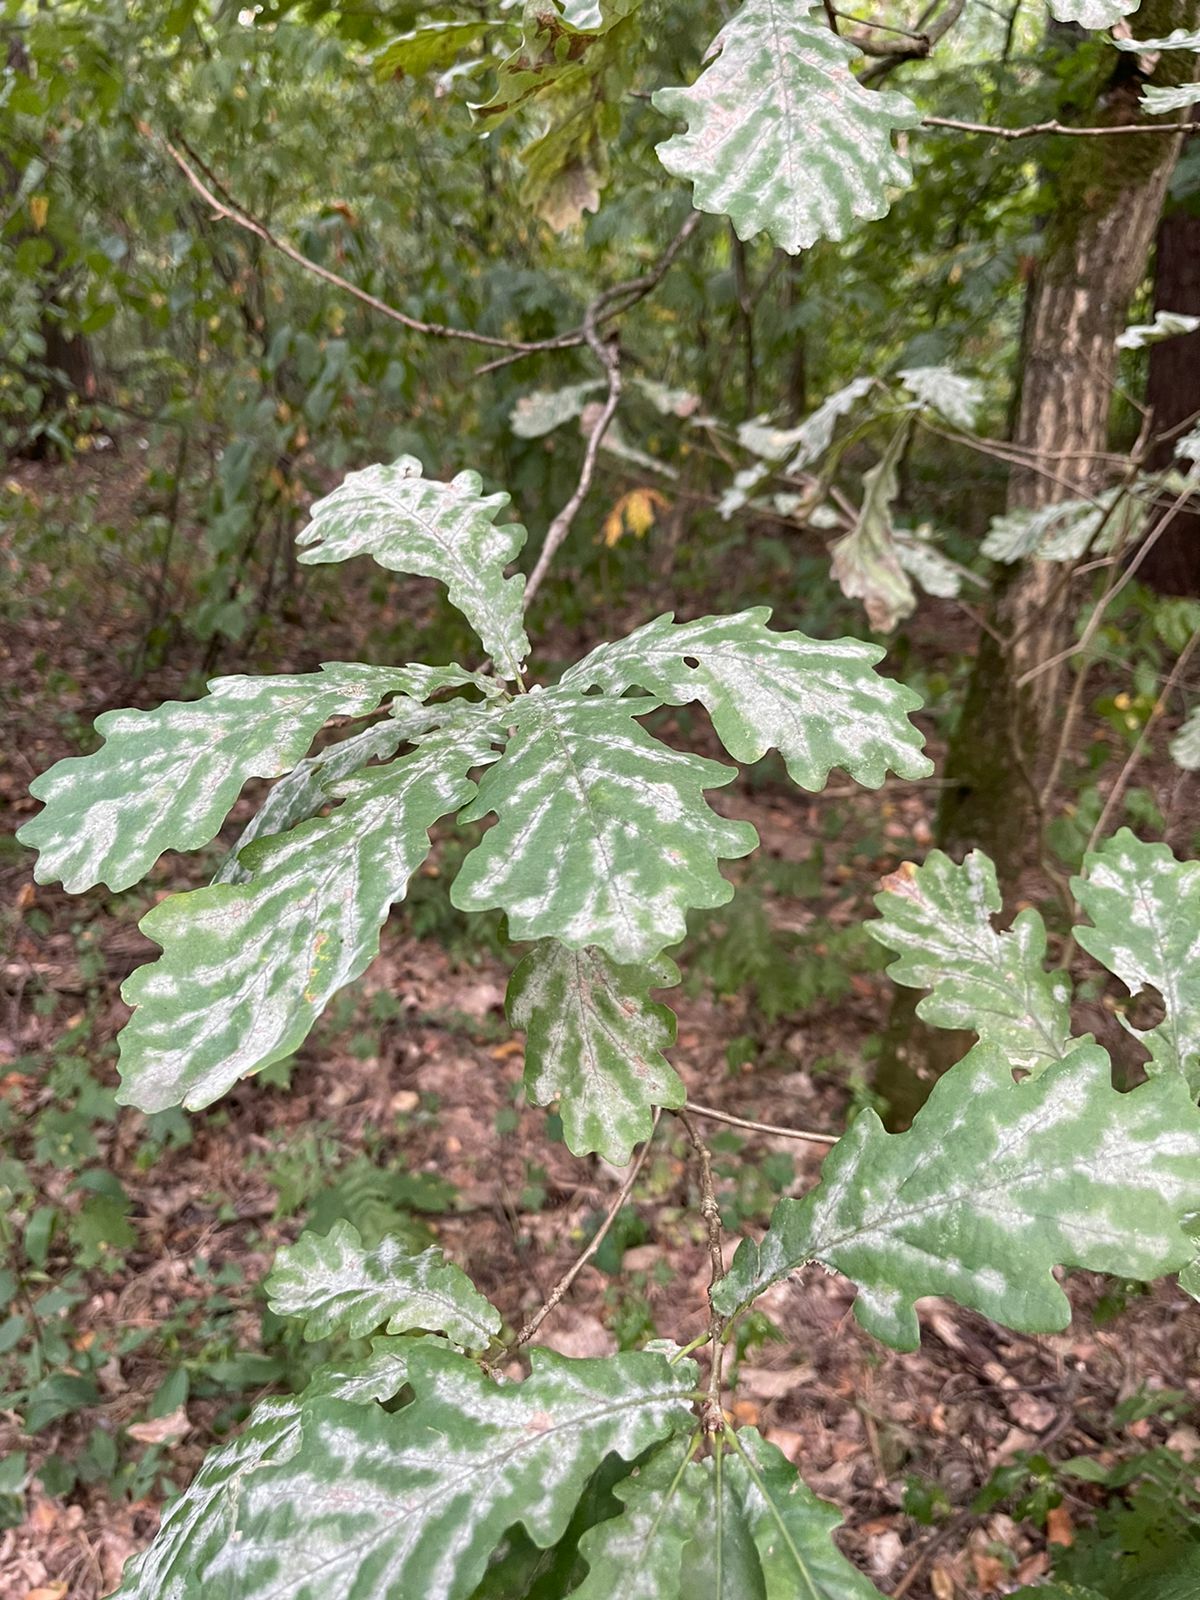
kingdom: Fungi
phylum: Ascomycota
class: Leotiomycetes
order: Helotiales
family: Erysiphaceae
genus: Erysiphe
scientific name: Erysiphe alphitoides
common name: Oak mildew
